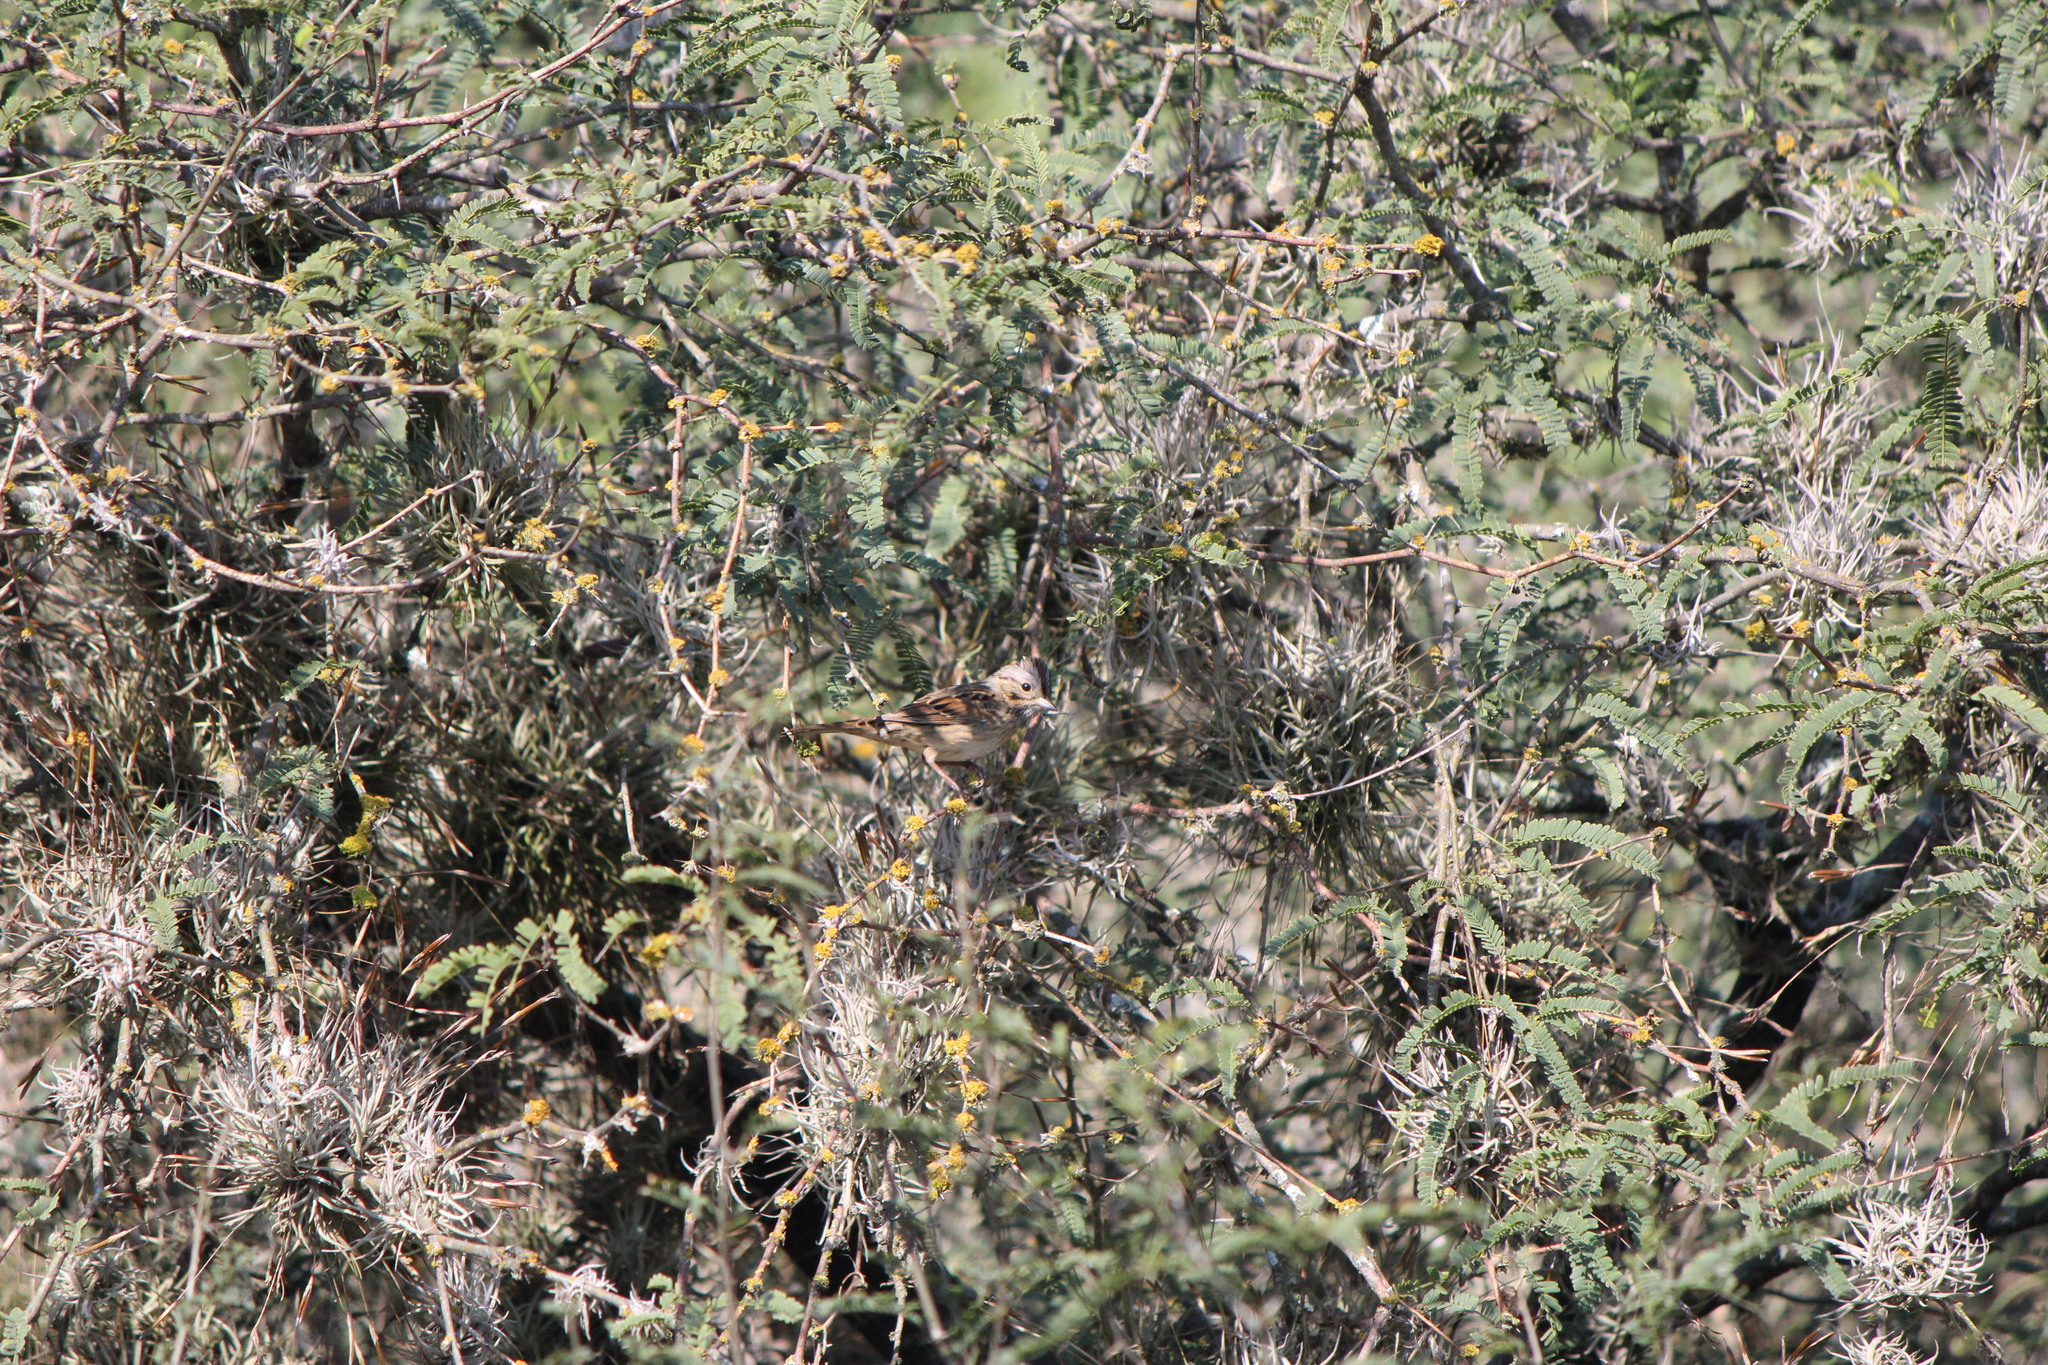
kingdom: Animalia
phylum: Chordata
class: Aves
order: Passeriformes
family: Passerellidae
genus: Melospiza
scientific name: Melospiza lincolnii
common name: Lincoln's sparrow
